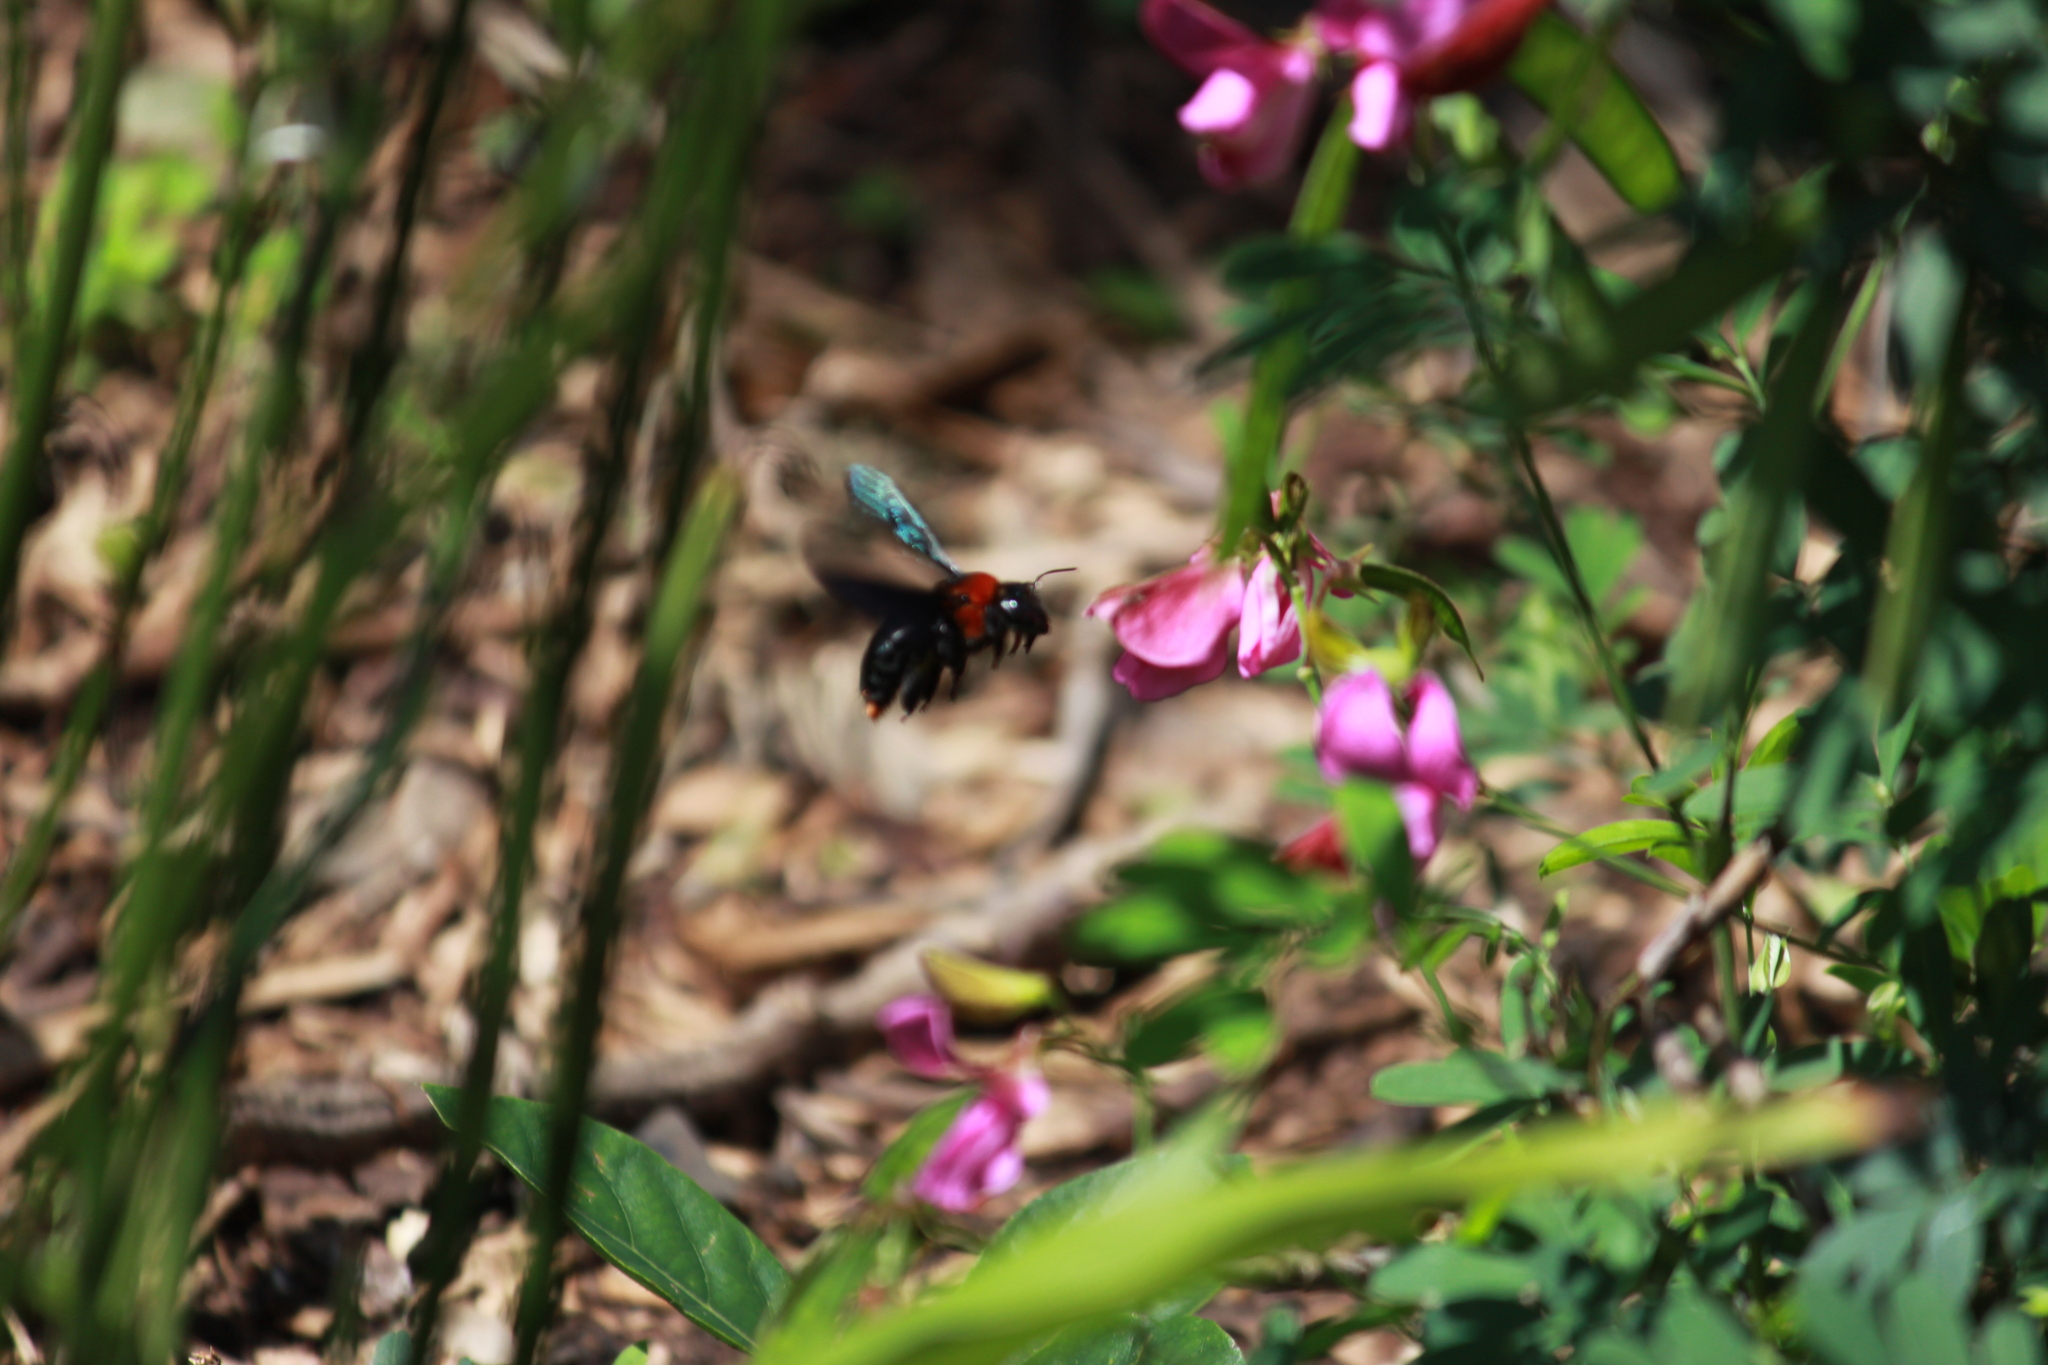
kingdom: Animalia
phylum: Arthropoda
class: Insecta
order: Hymenoptera
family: Apidae
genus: Xylocopa
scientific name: Xylocopa flavorufa
